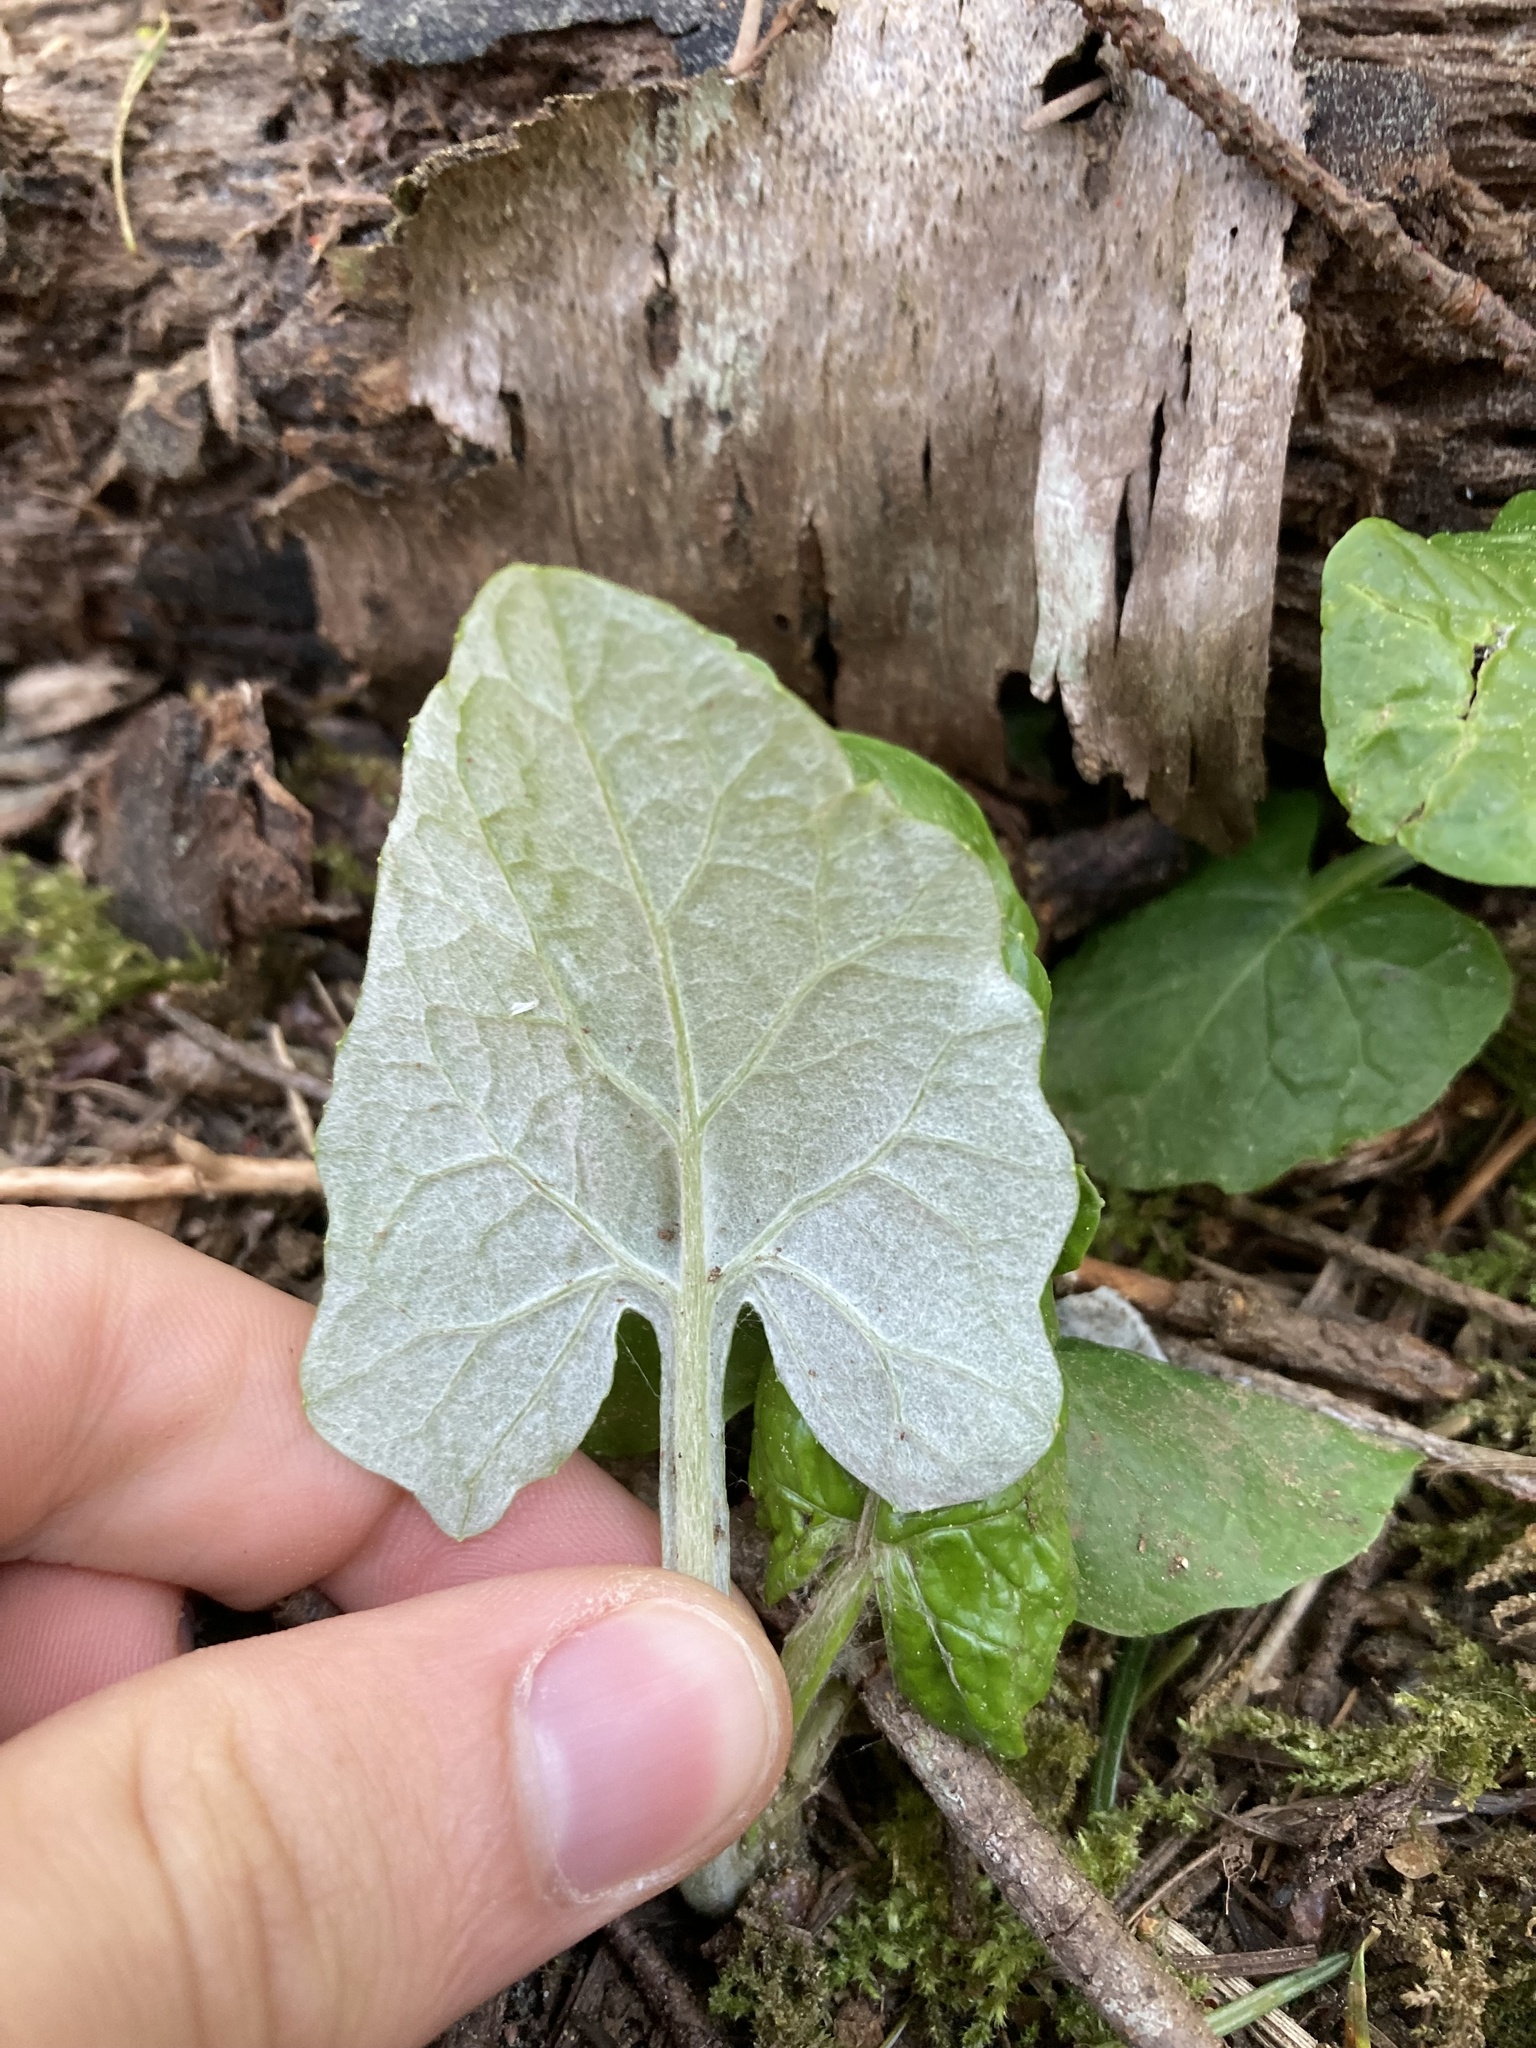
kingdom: Plantae
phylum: Tracheophyta
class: Magnoliopsida
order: Asterales
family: Asteraceae
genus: Adenocaulon
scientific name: Adenocaulon bicolor
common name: Trailplant
